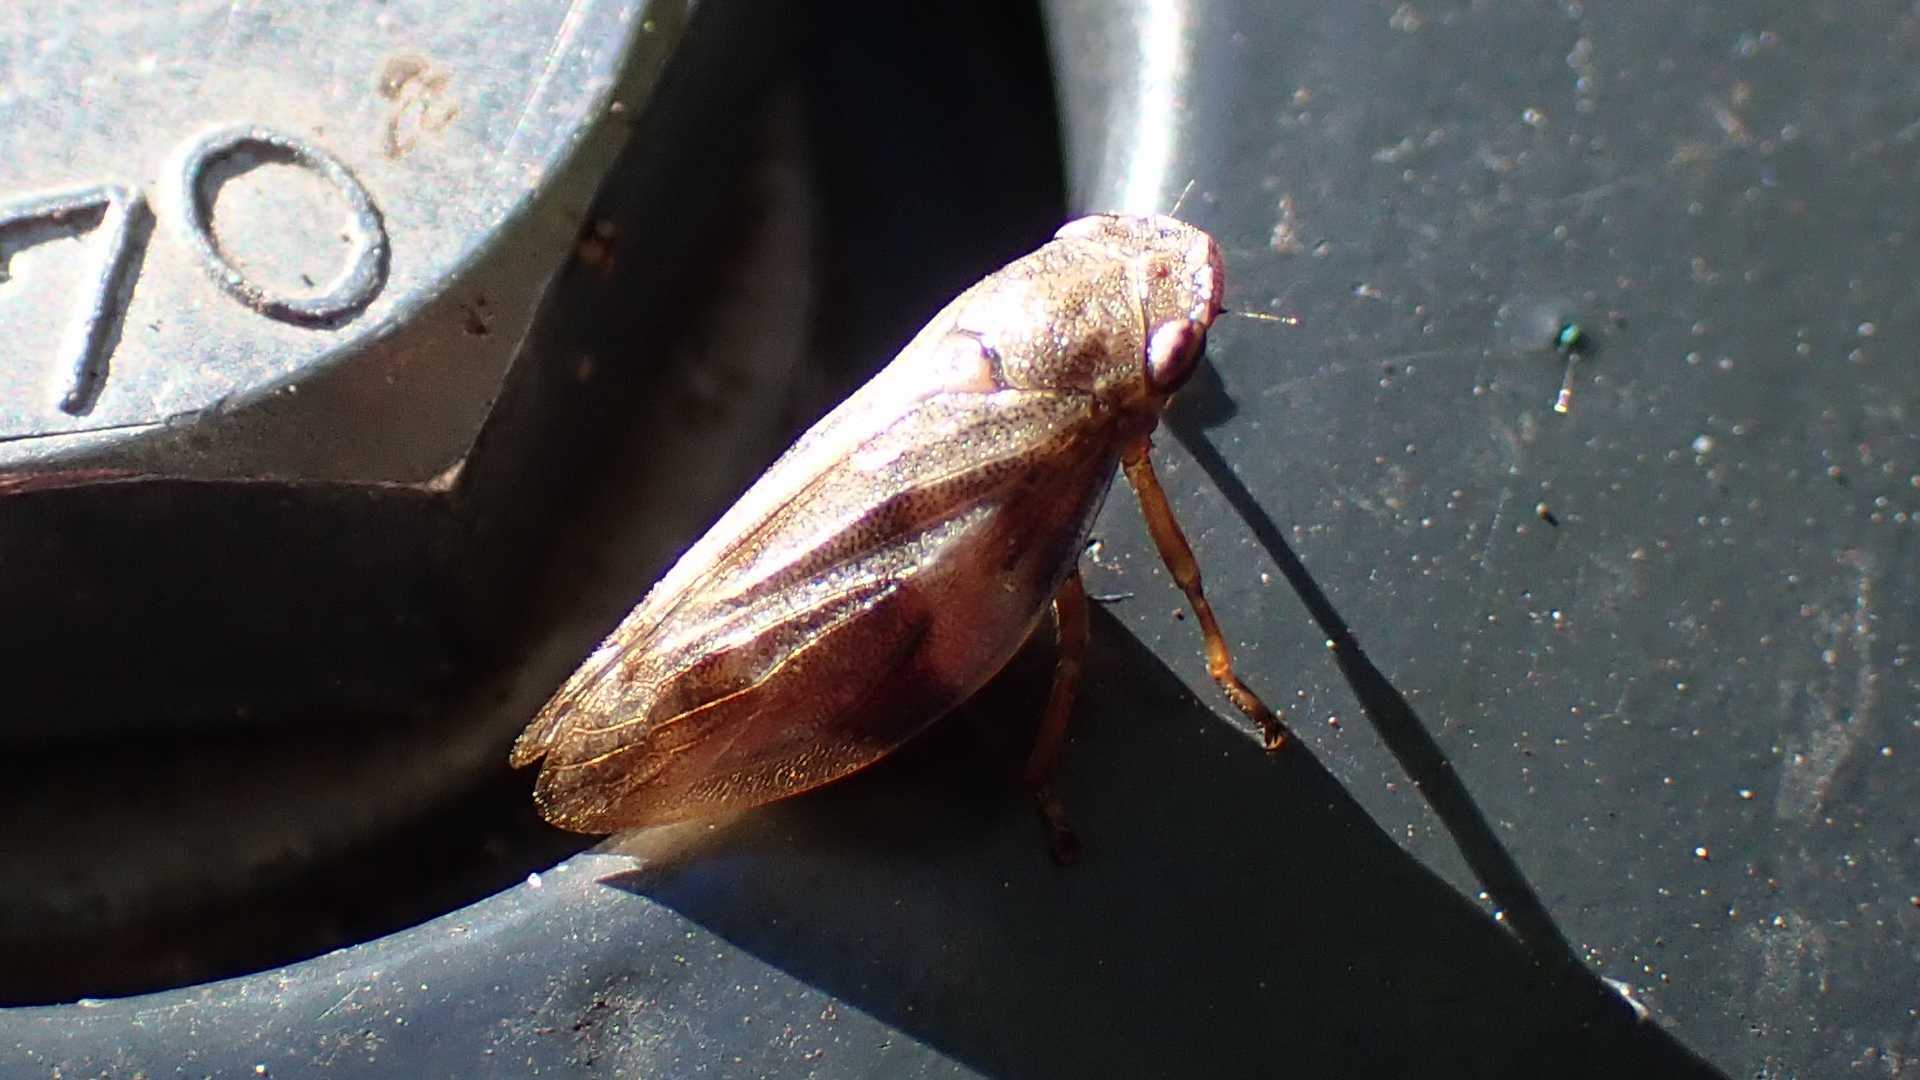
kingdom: Animalia
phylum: Arthropoda
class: Insecta
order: Hemiptera
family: Aphrophoridae
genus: Aphrophora
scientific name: Aphrophora alni
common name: European alder spittlebug
